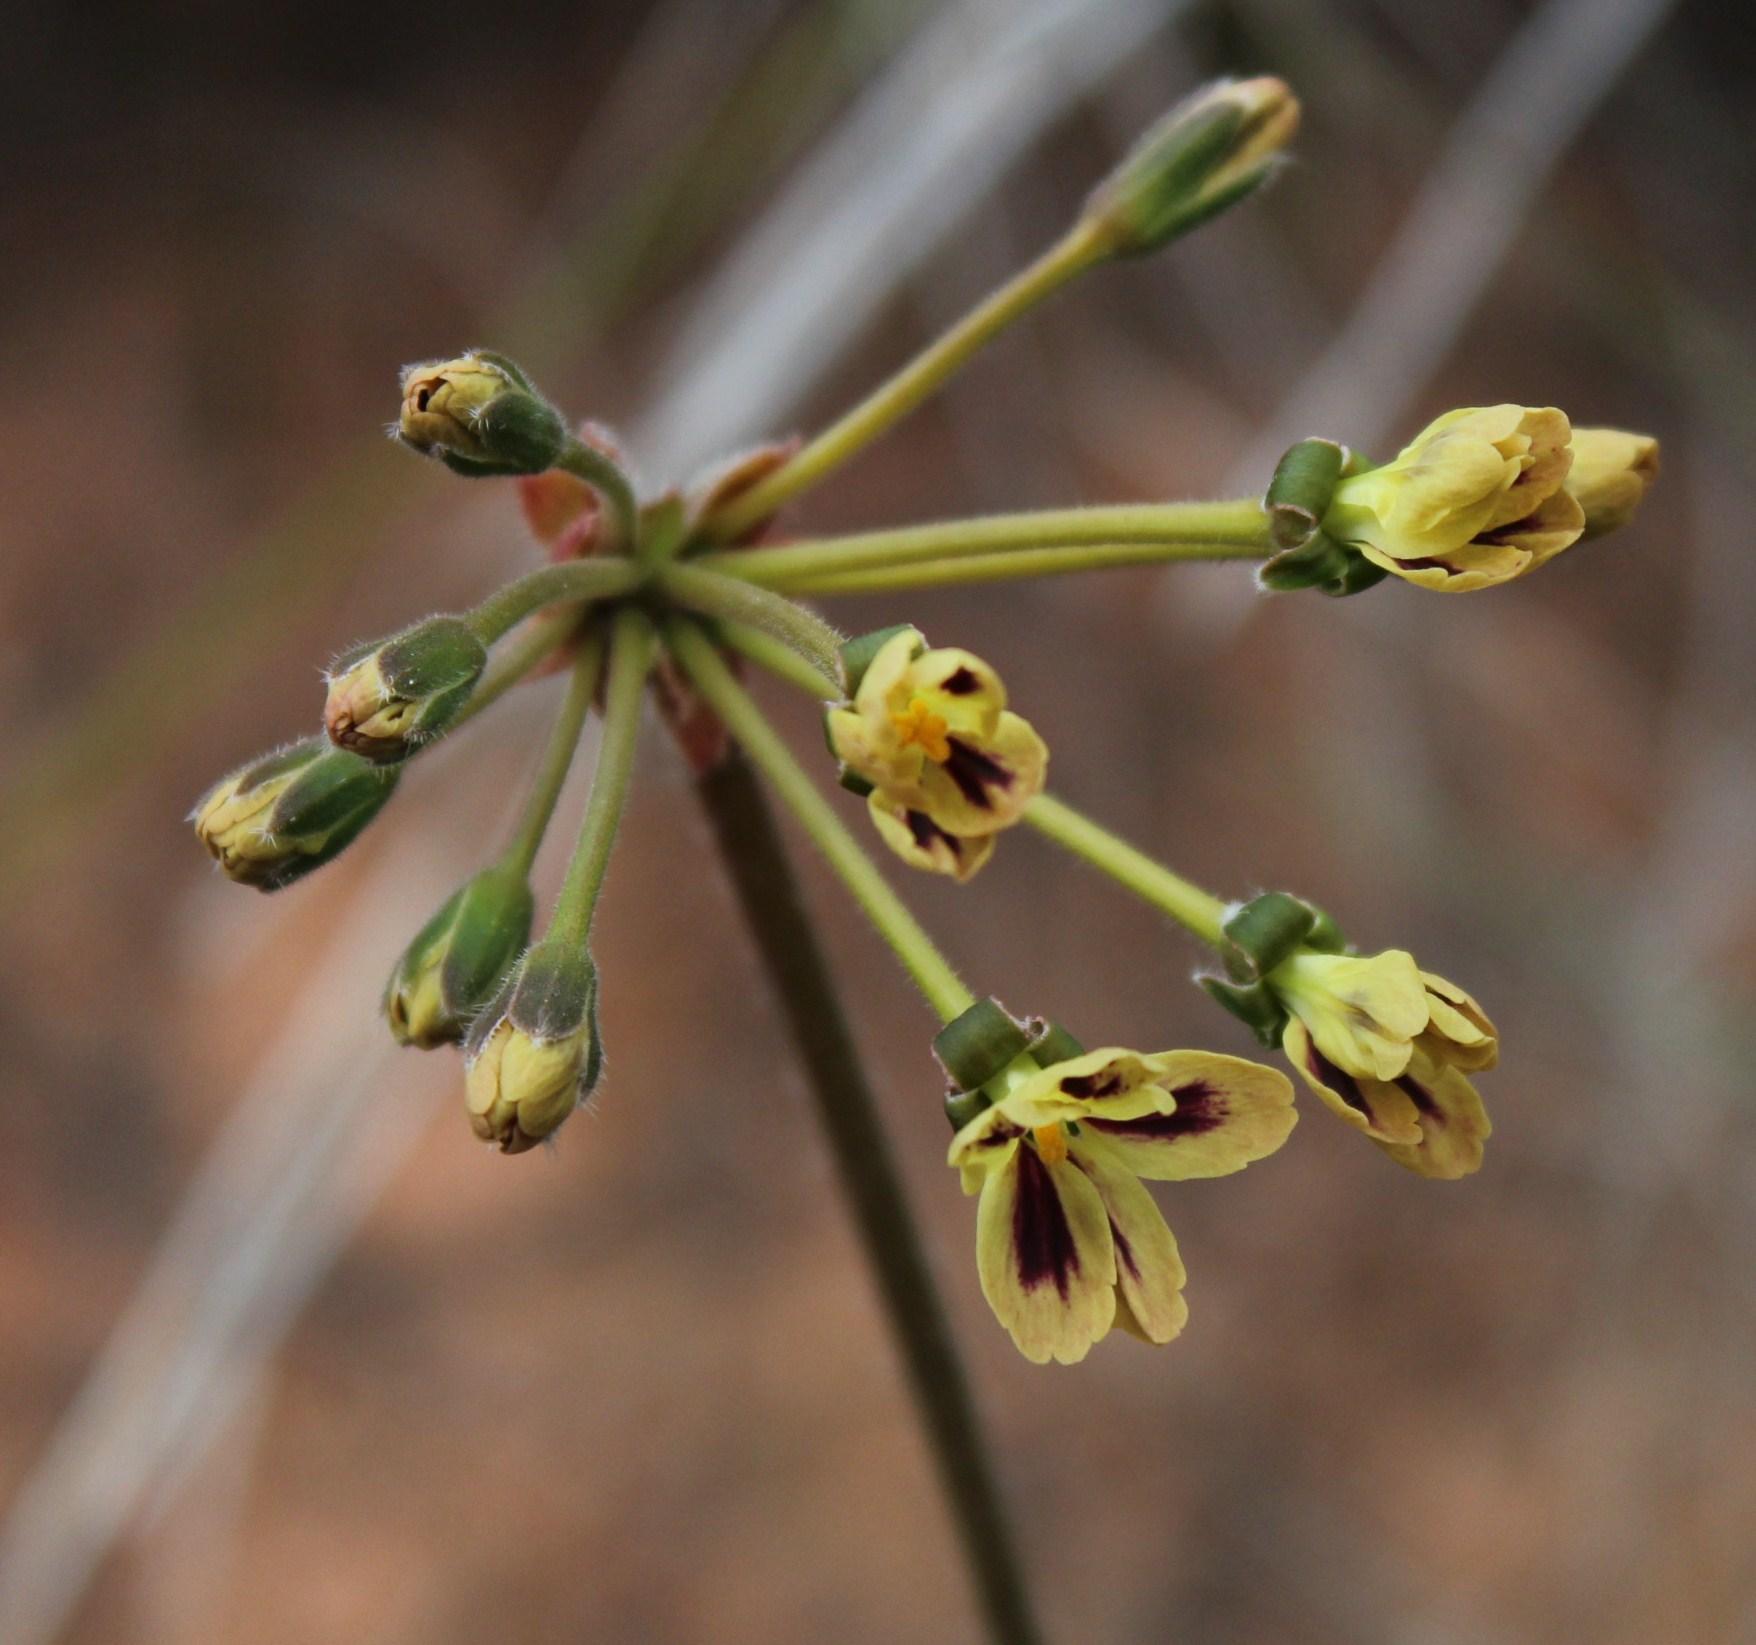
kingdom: Plantae
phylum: Tracheophyta
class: Magnoliopsida
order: Geraniales
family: Geraniaceae
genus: Pelargonium
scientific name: Pelargonium triste
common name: Night-scent pelargonium
